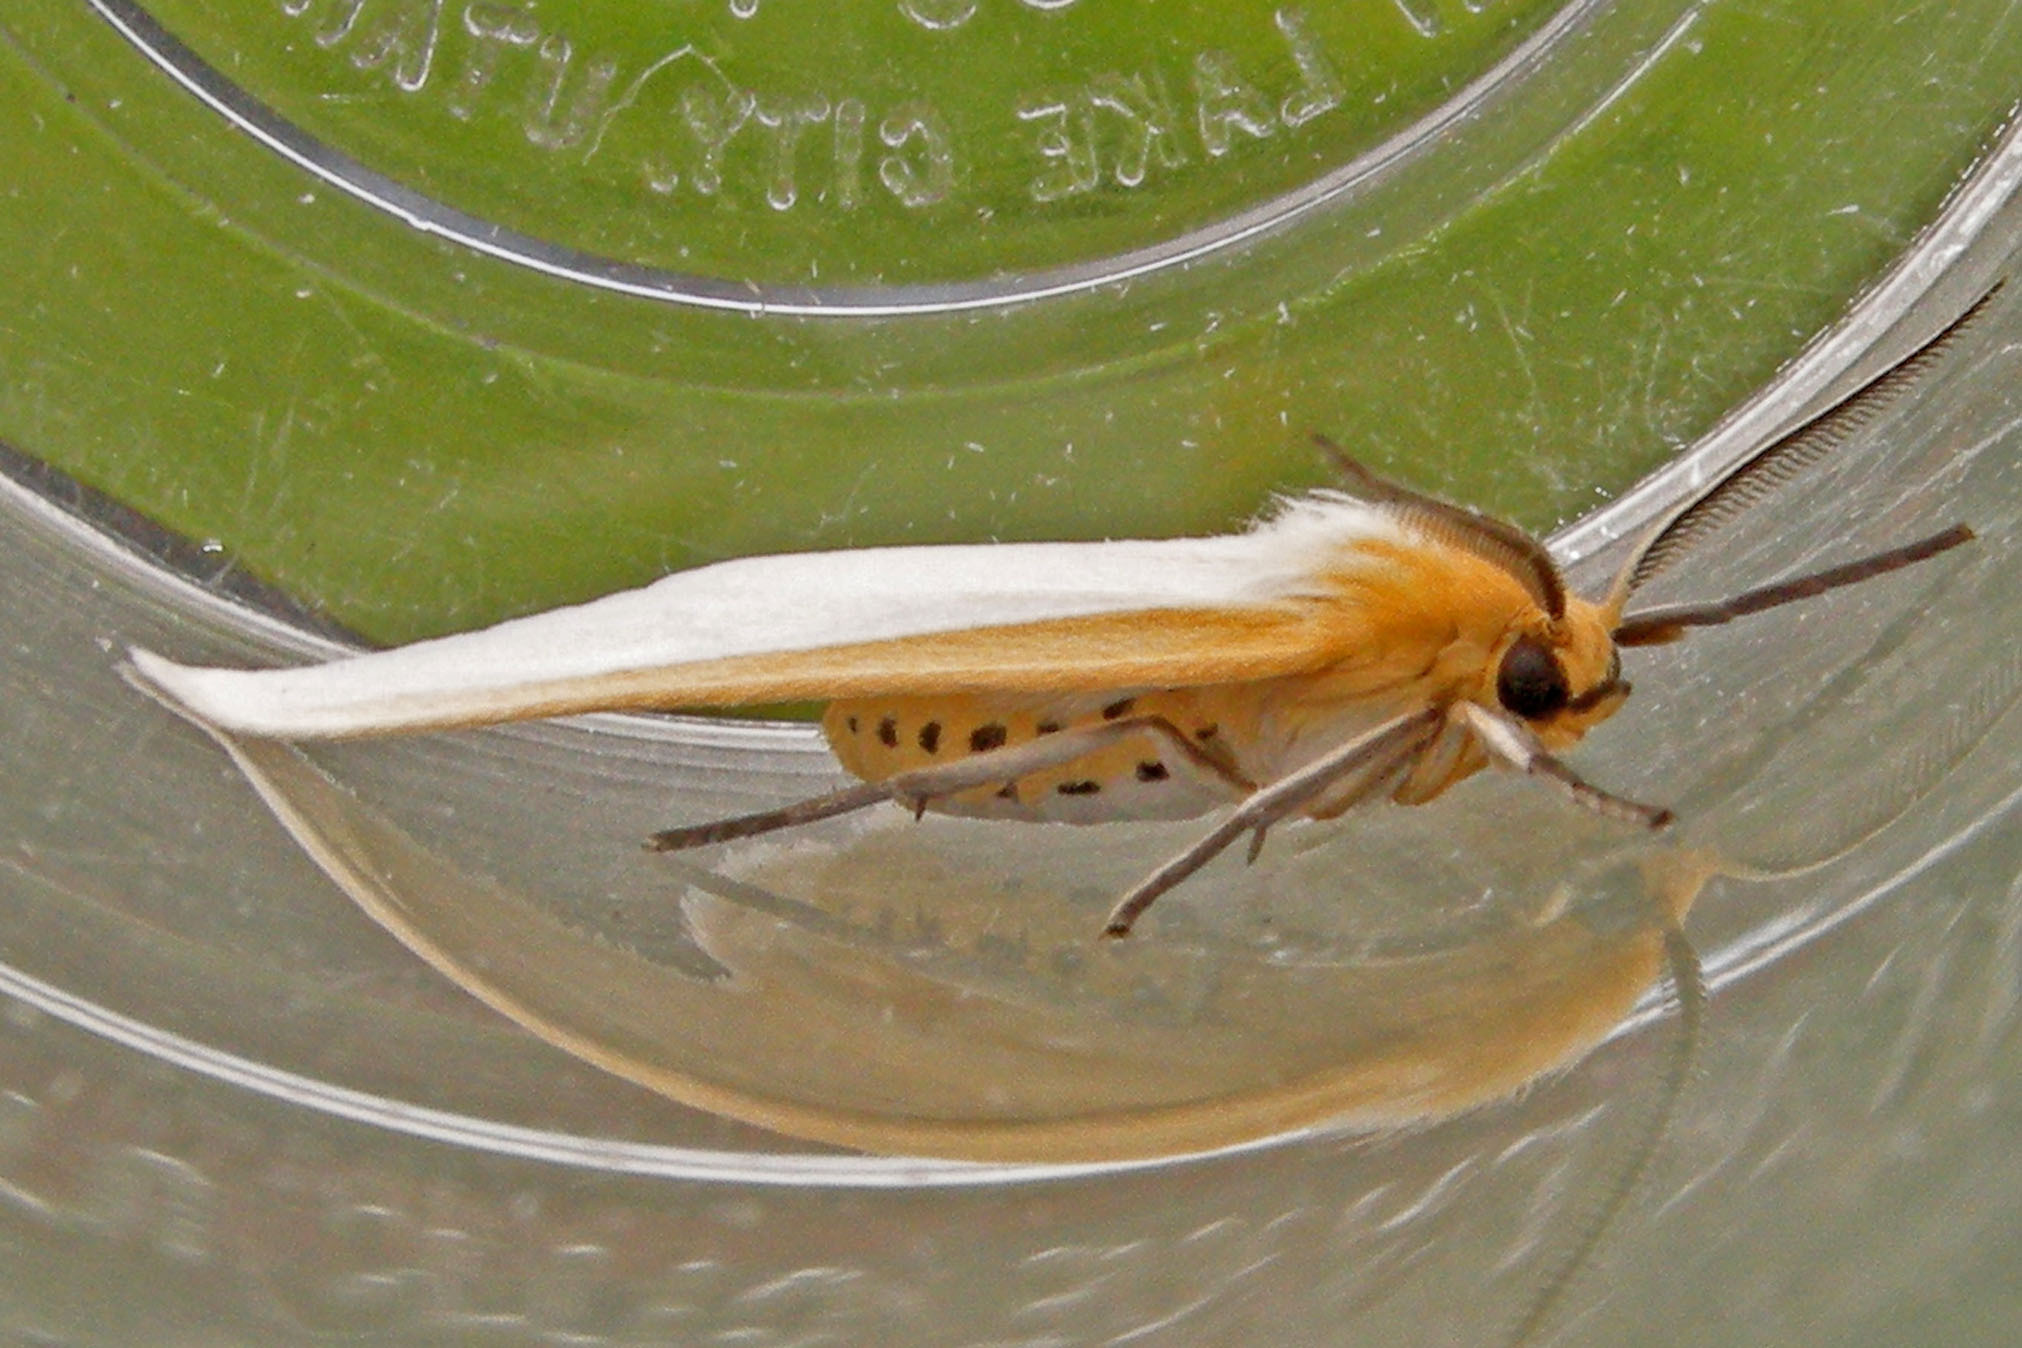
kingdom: Animalia
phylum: Arthropoda
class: Insecta
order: Lepidoptera
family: Erebidae
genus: Cycnia
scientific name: Cycnia tenera
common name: Delicate cycnia moth
